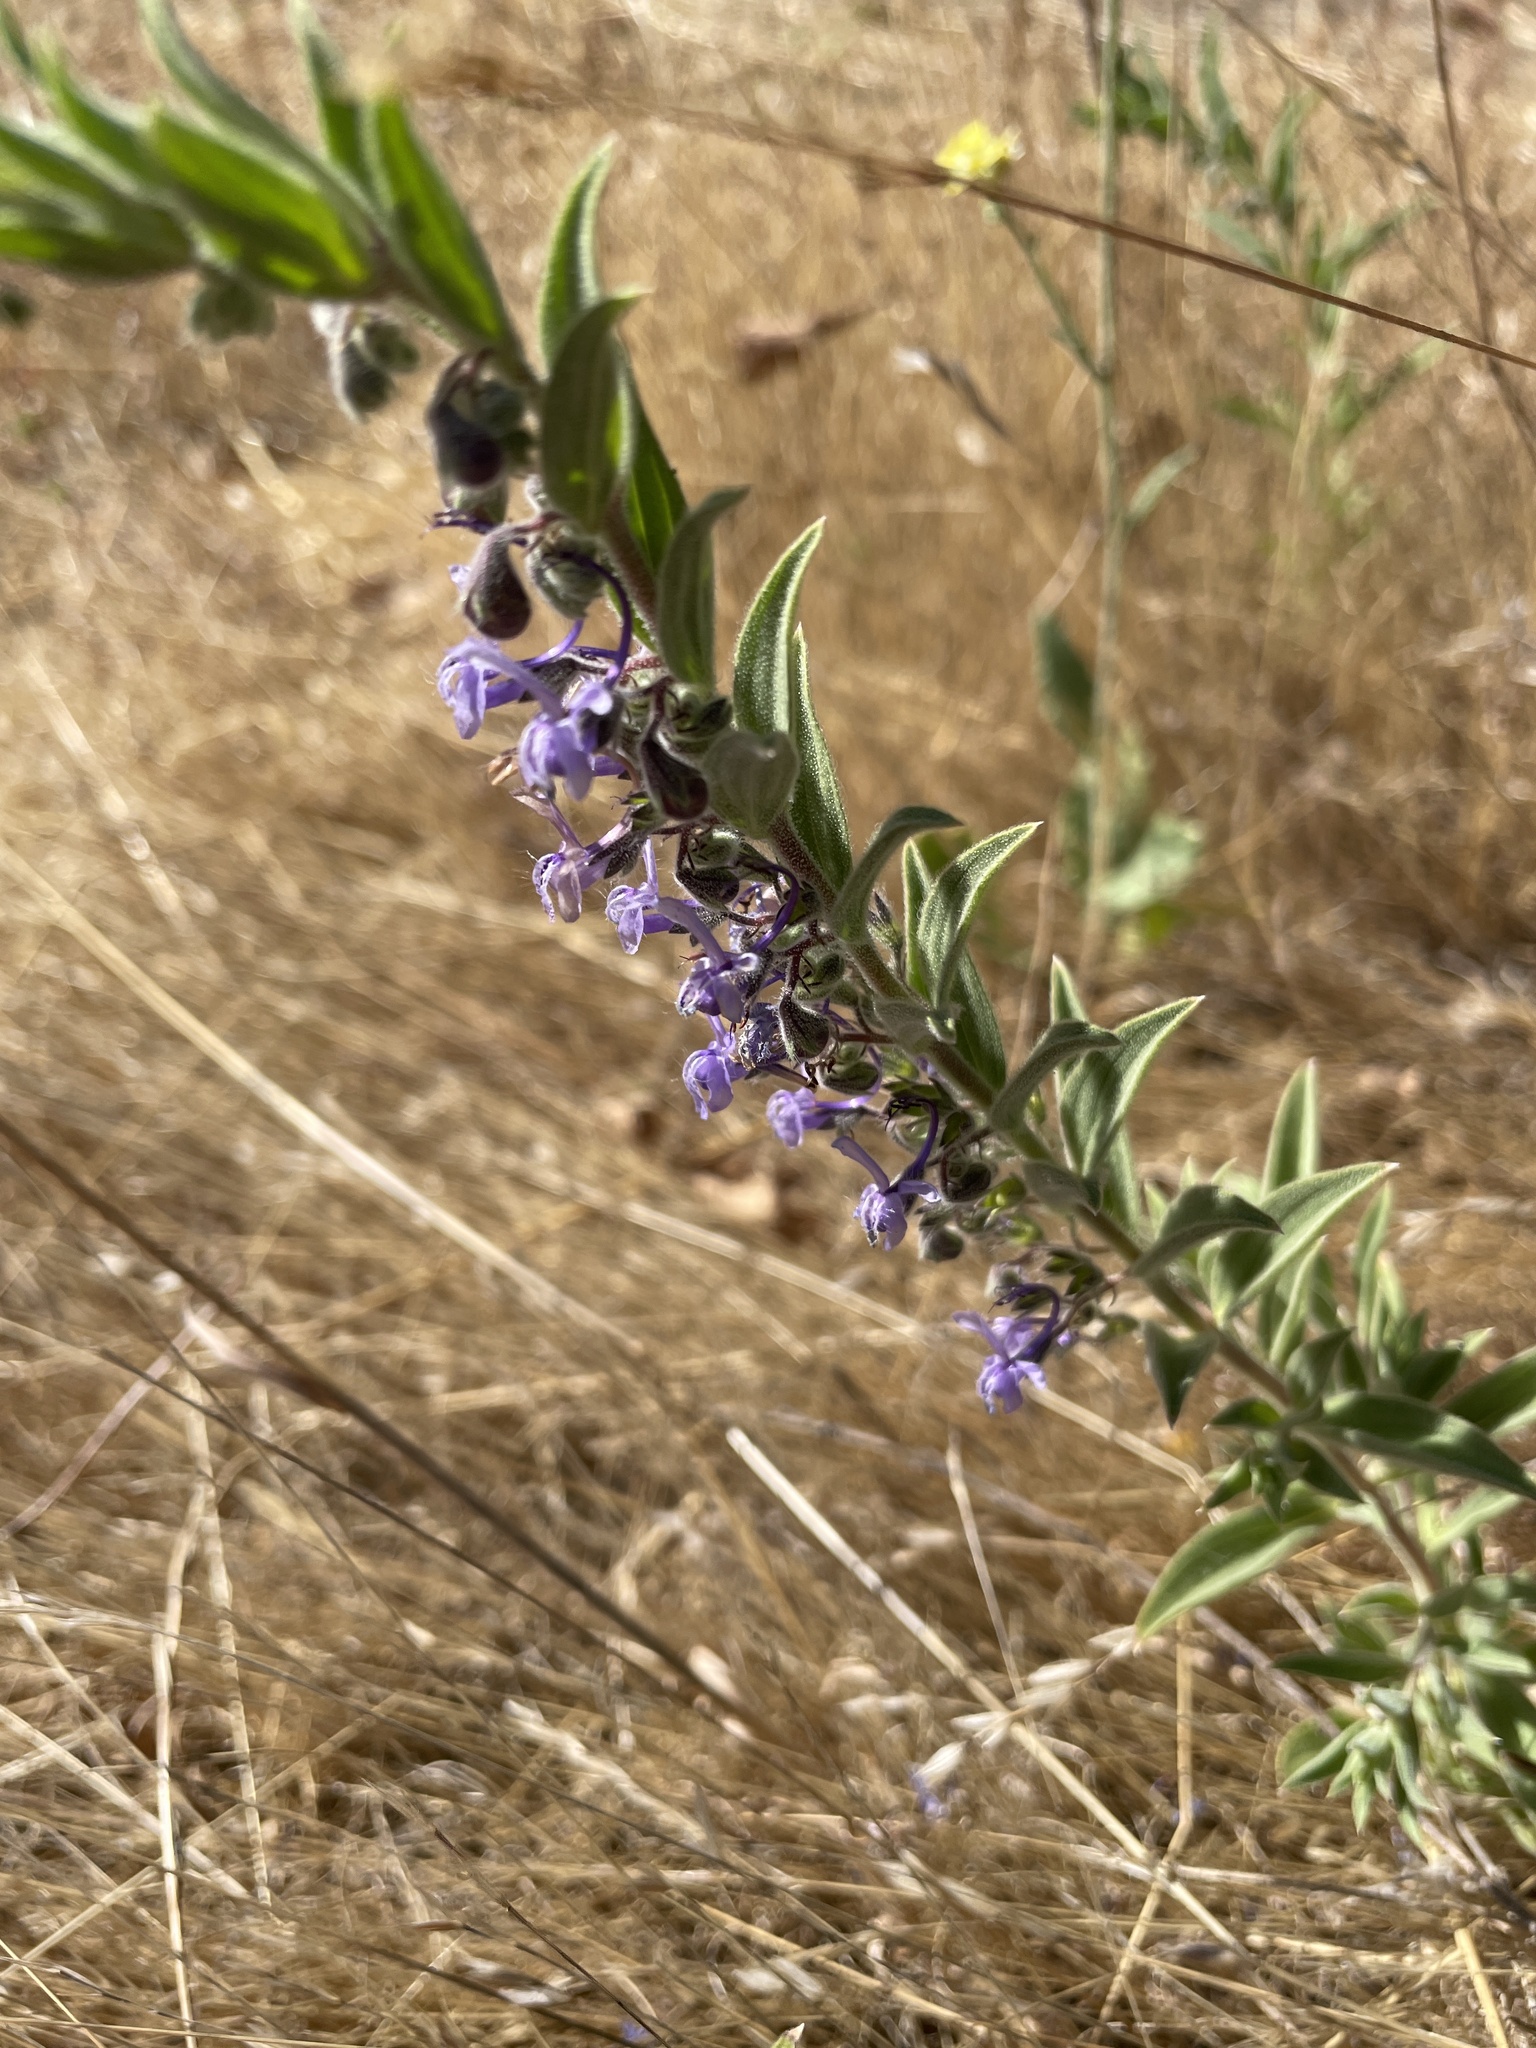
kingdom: Plantae
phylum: Tracheophyta
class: Magnoliopsida
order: Lamiales
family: Lamiaceae
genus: Trichostema
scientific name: Trichostema lanceolatum
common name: Vinegar-weed
